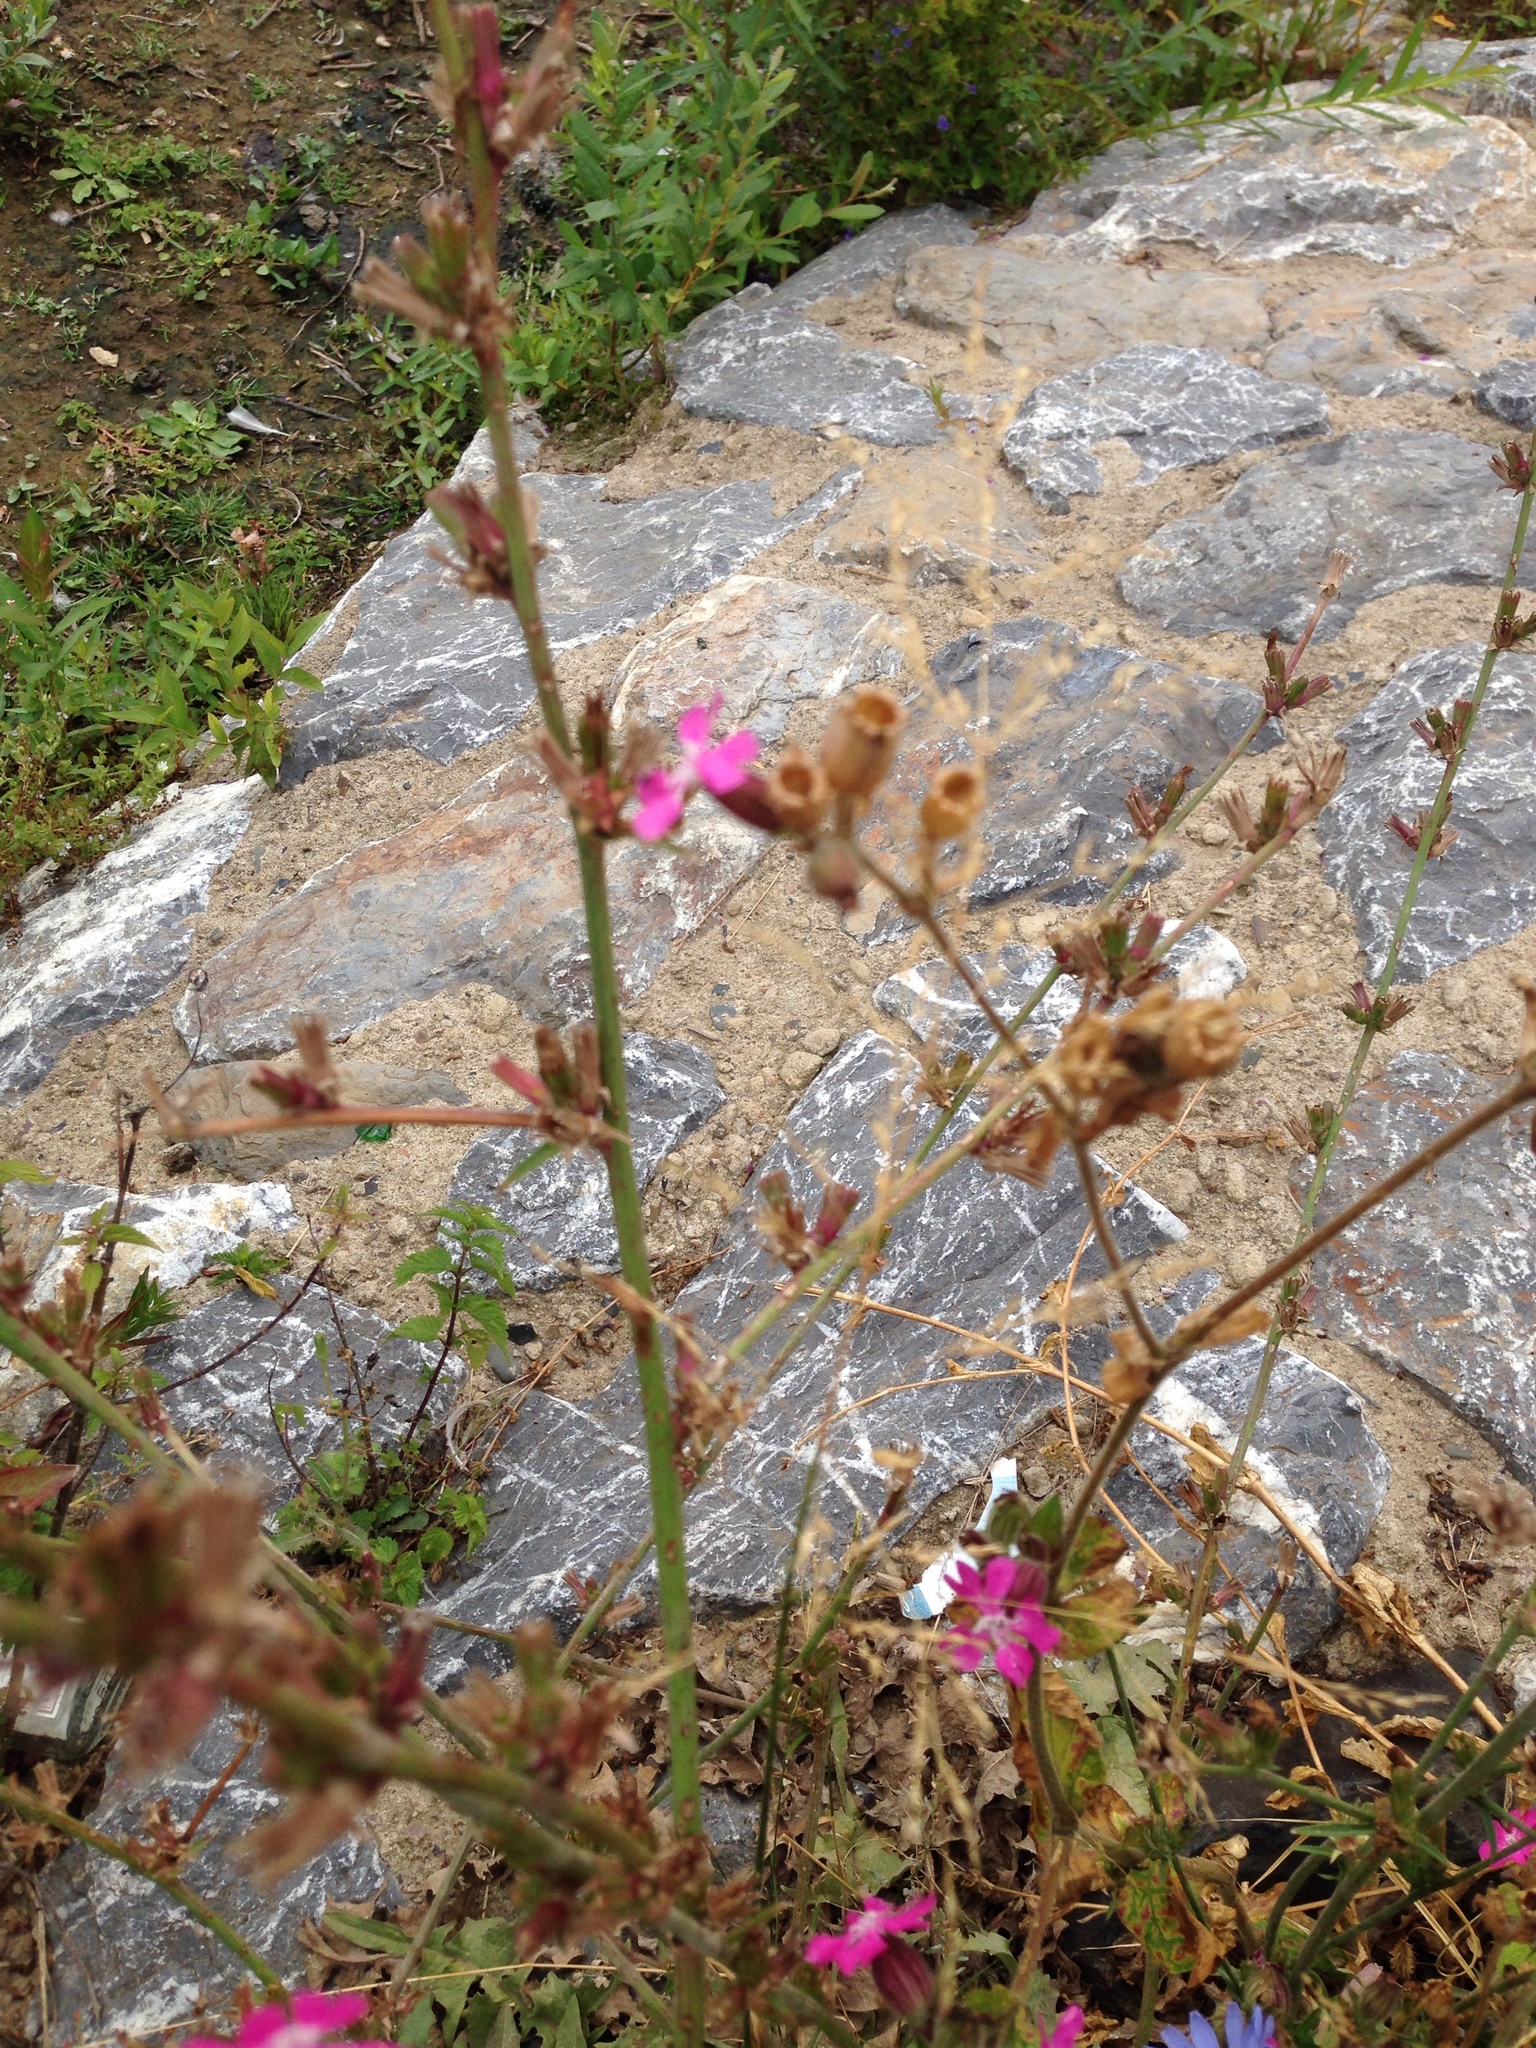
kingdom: Plantae
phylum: Tracheophyta
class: Magnoliopsida
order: Caryophyllales
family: Caryophyllaceae
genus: Silene
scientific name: Silene dioica
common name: Red campion
